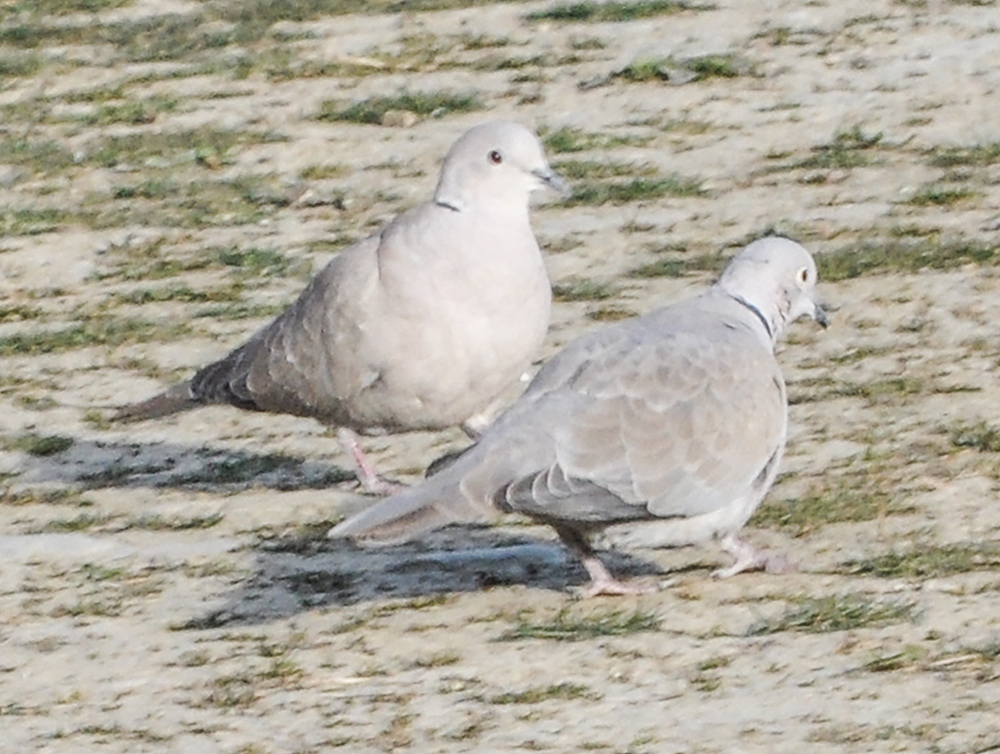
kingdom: Animalia
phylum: Chordata
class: Aves
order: Columbiformes
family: Columbidae
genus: Streptopelia
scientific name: Streptopelia decaocto
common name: Eurasian collared dove
